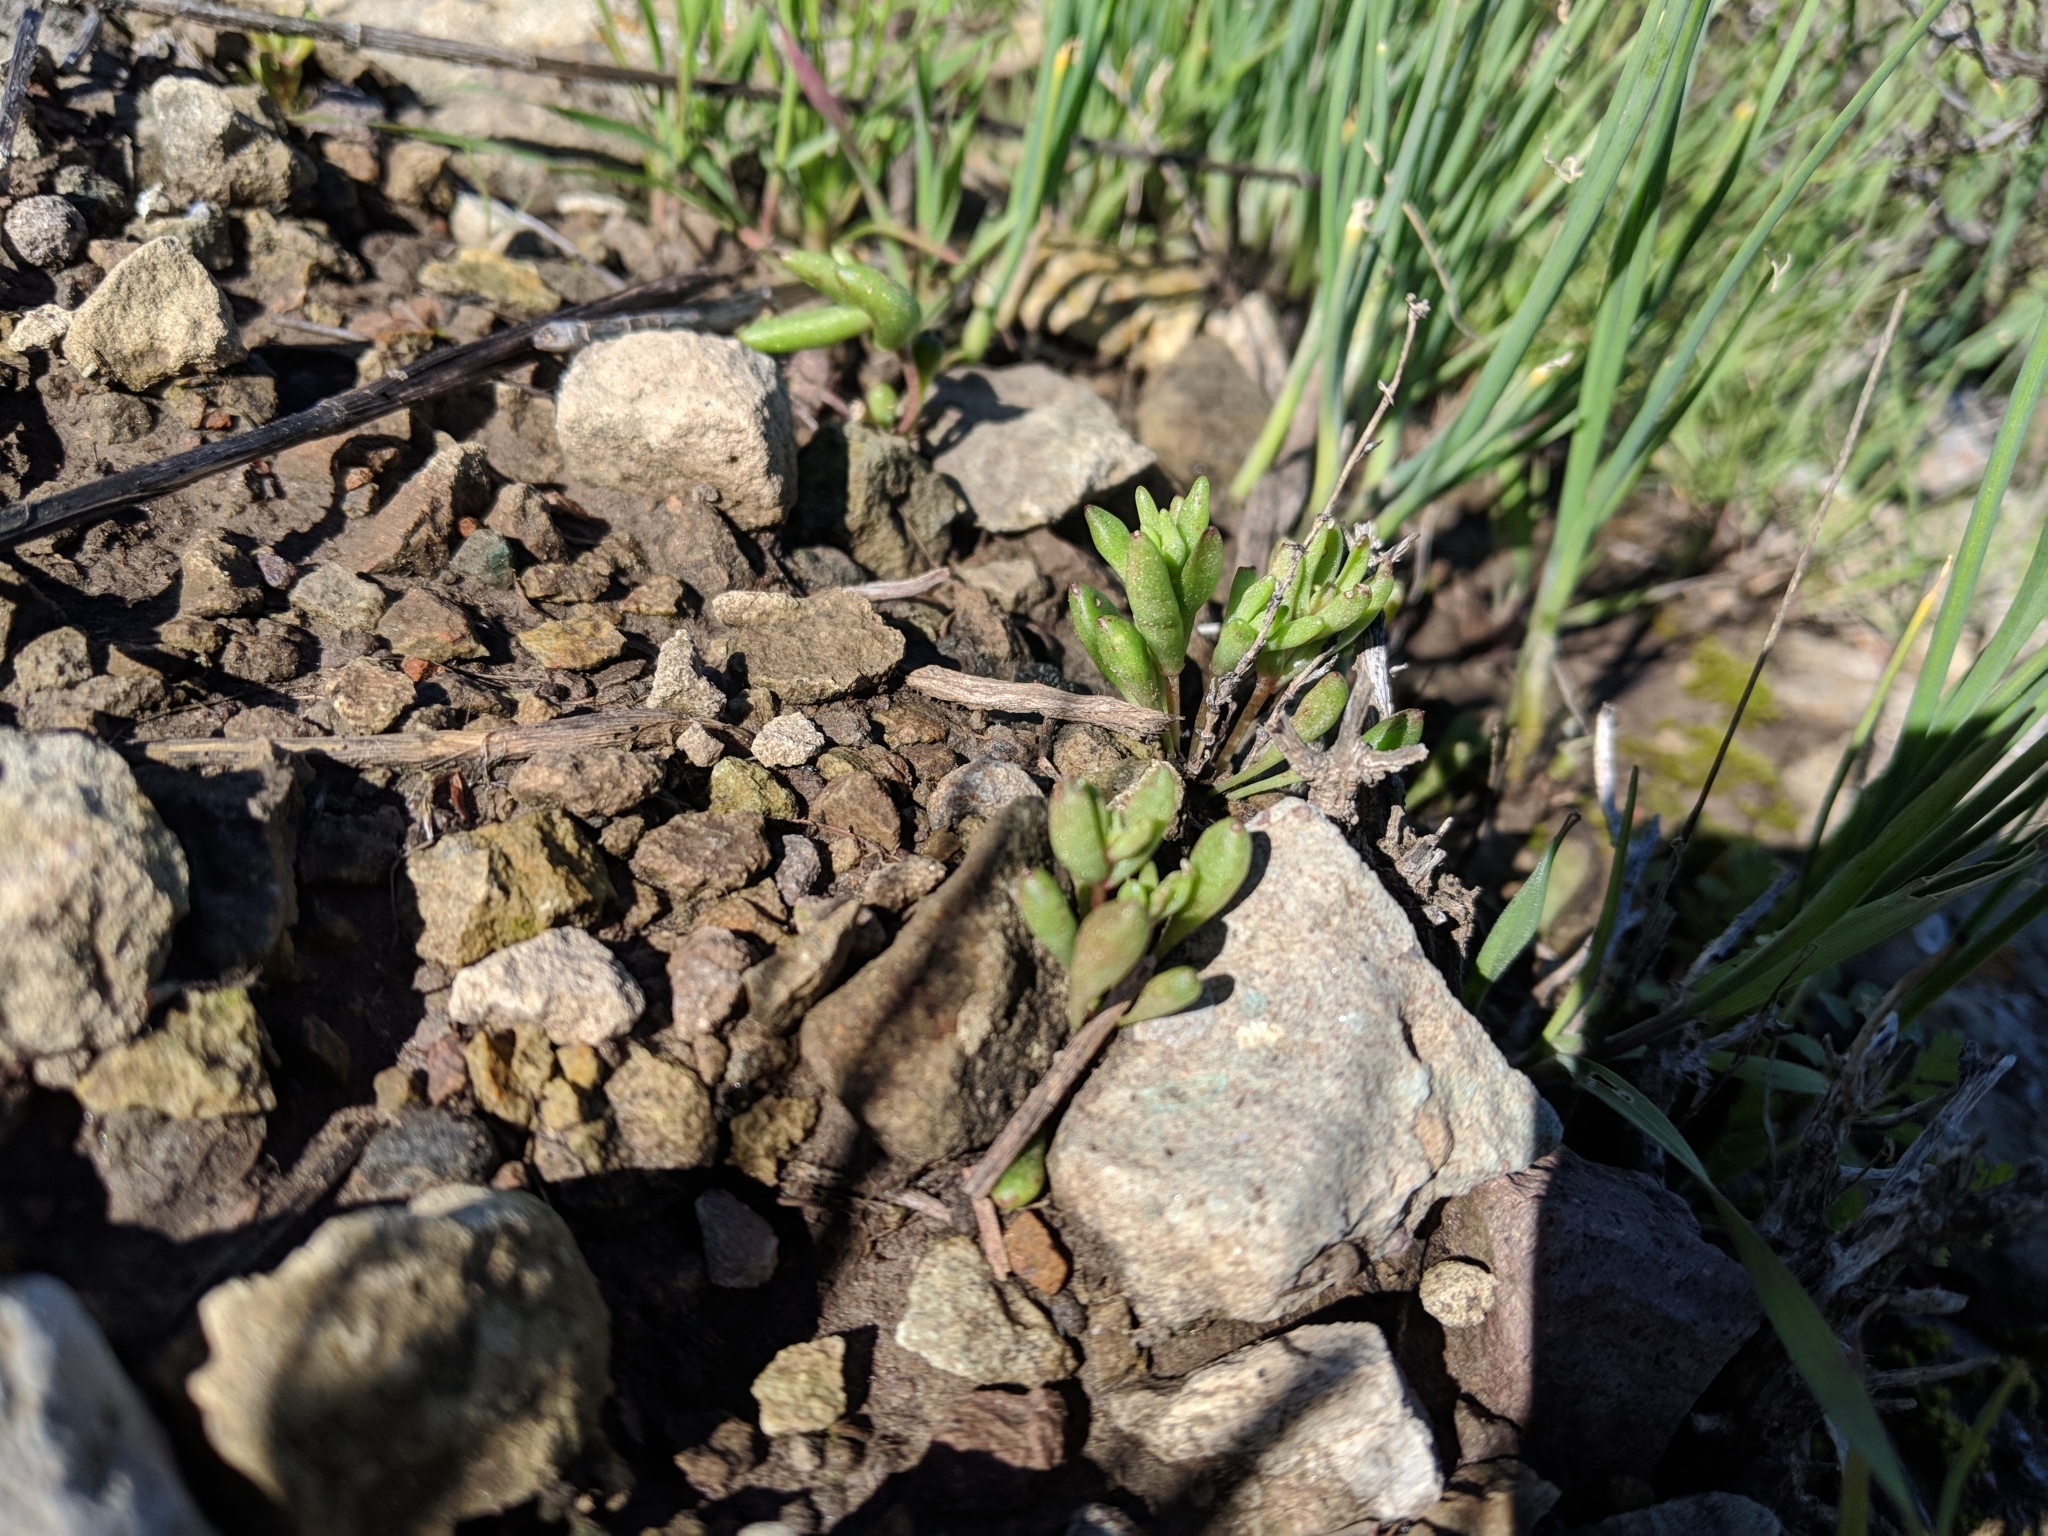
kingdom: Plantae
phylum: Tracheophyta
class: Magnoliopsida
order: Saxifragales
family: Crassulaceae
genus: Dudleya
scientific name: Dudleya blochmaniae
